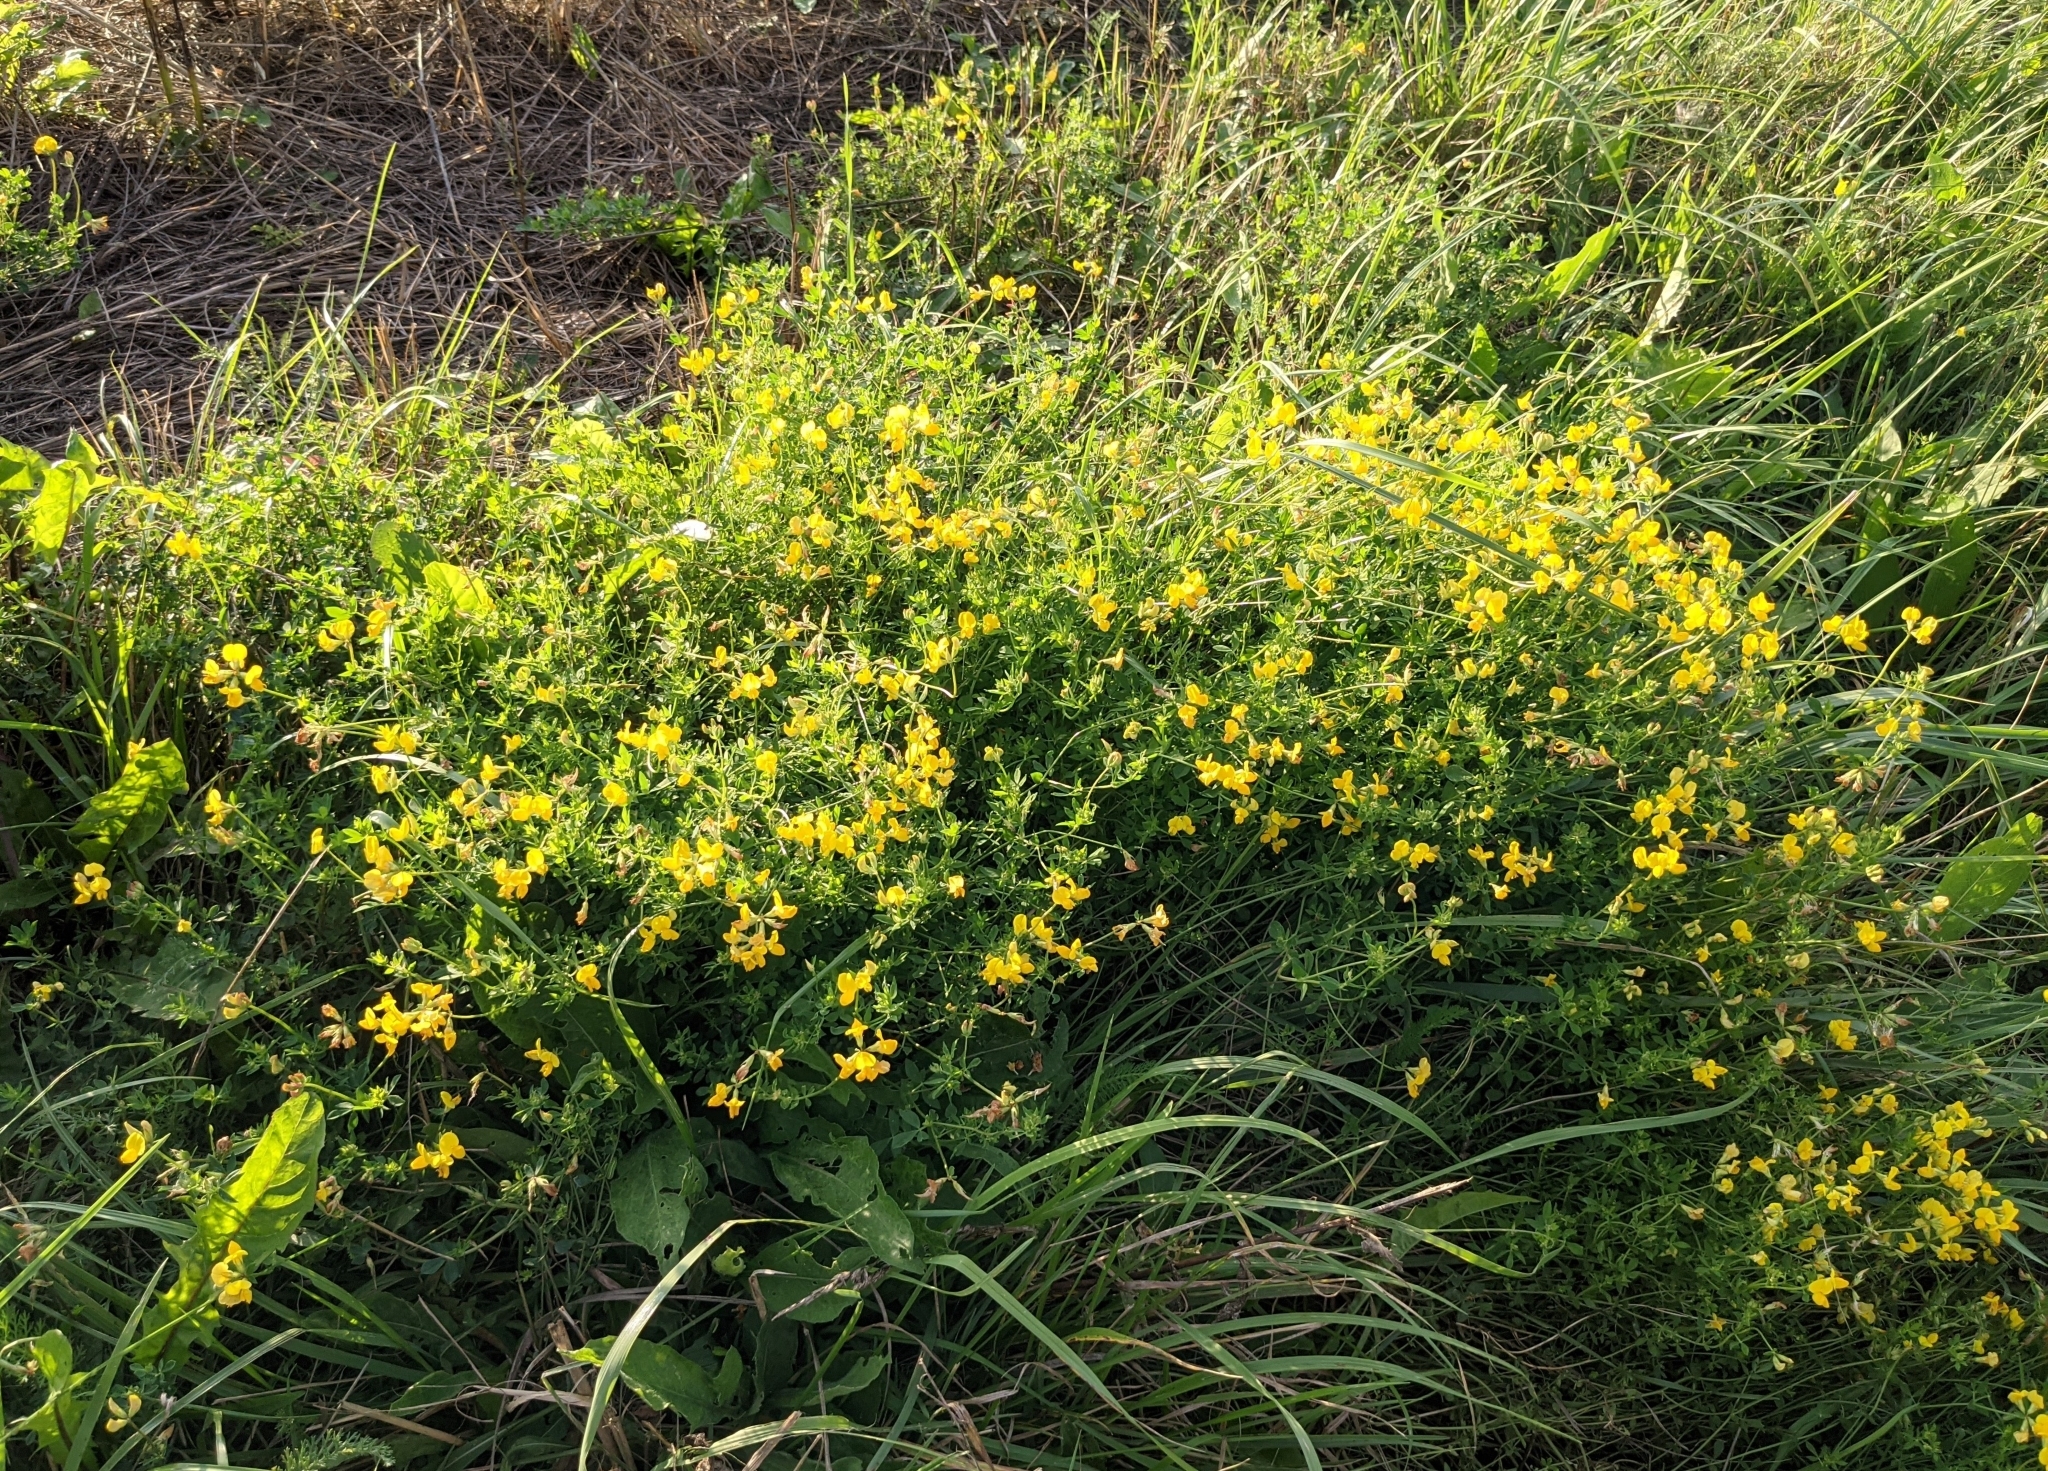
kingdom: Plantae
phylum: Tracheophyta
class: Magnoliopsida
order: Fabales
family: Fabaceae
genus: Lotus
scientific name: Lotus corniculatus
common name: Common bird's-foot-trefoil
